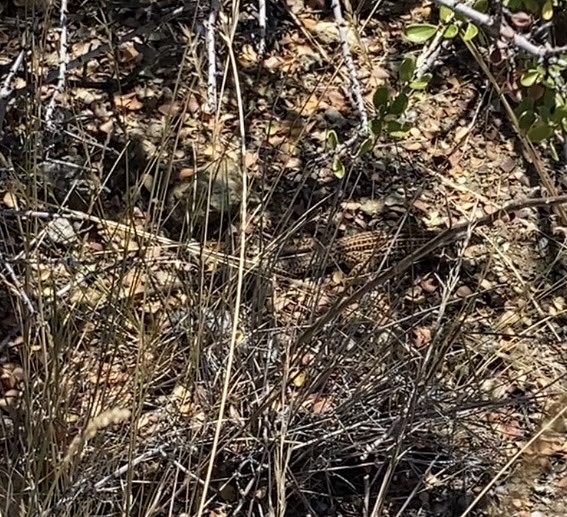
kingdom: Animalia
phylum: Chordata
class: Squamata
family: Teiidae
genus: Aspidoscelis
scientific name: Aspidoscelis tigris
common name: Tiger whiptail
